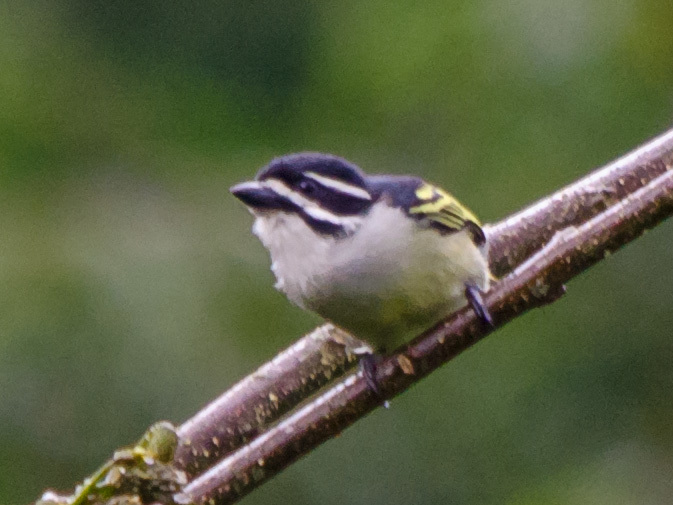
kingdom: Animalia
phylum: Chordata
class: Aves
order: Piciformes
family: Lybiidae
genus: Pogoniulus
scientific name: Pogoniulus bilineatus
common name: Yellow-rumped tinkerbird
